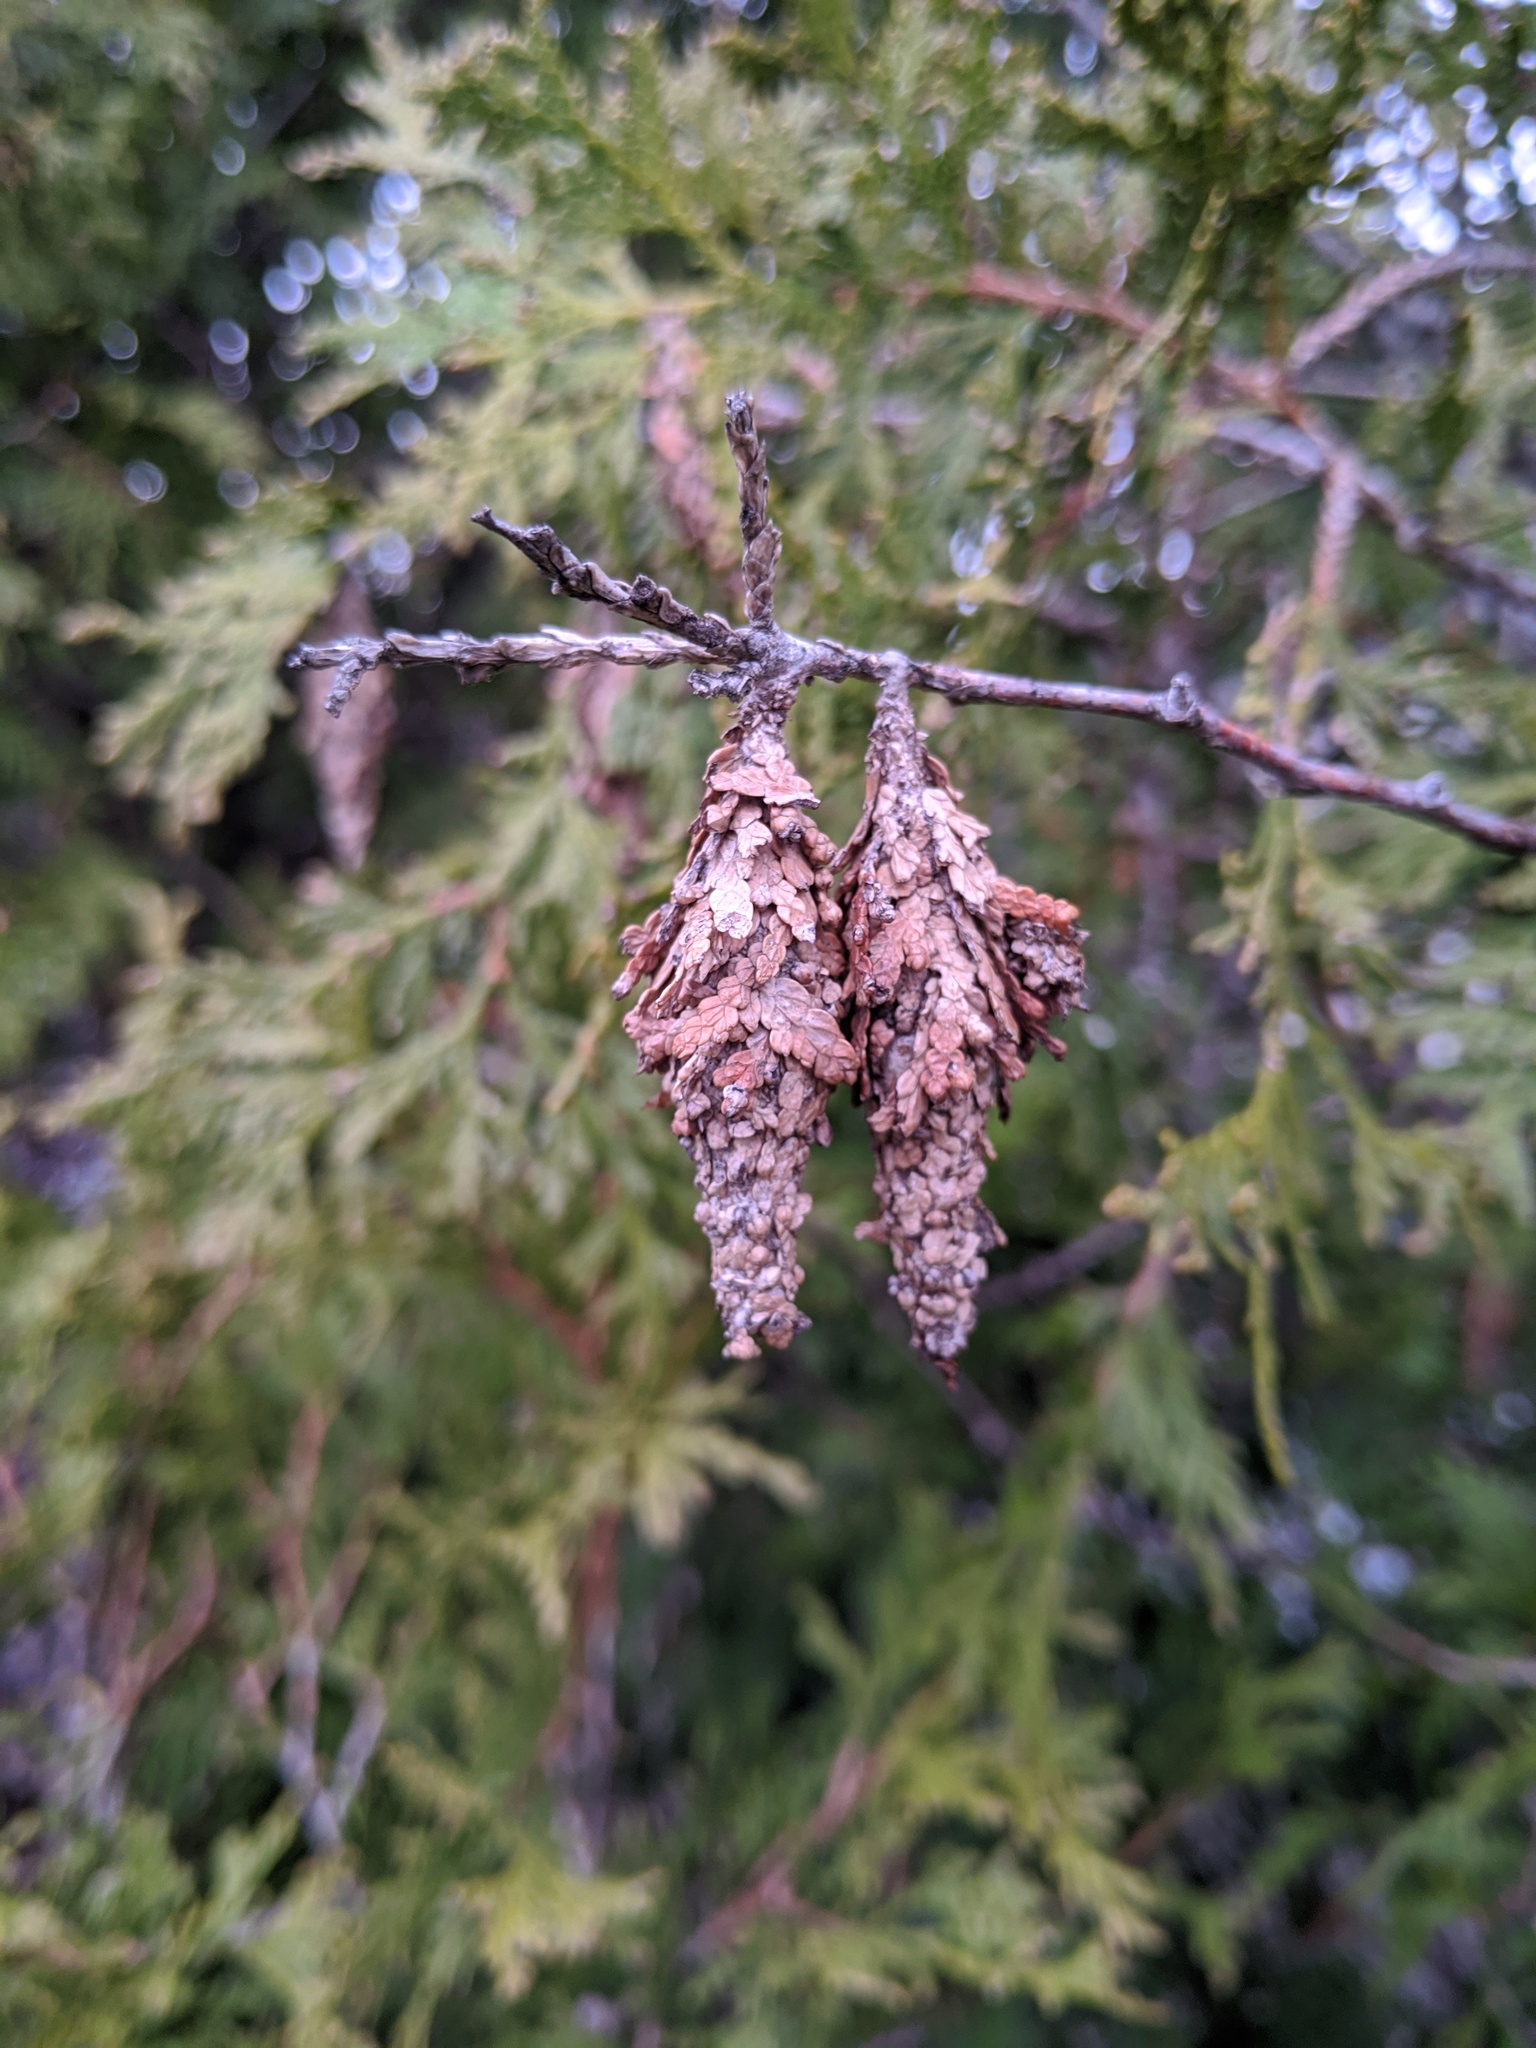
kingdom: Animalia
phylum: Arthropoda
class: Insecta
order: Lepidoptera
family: Psychidae
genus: Thyridopteryx
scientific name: Thyridopteryx ephemeraeformis
